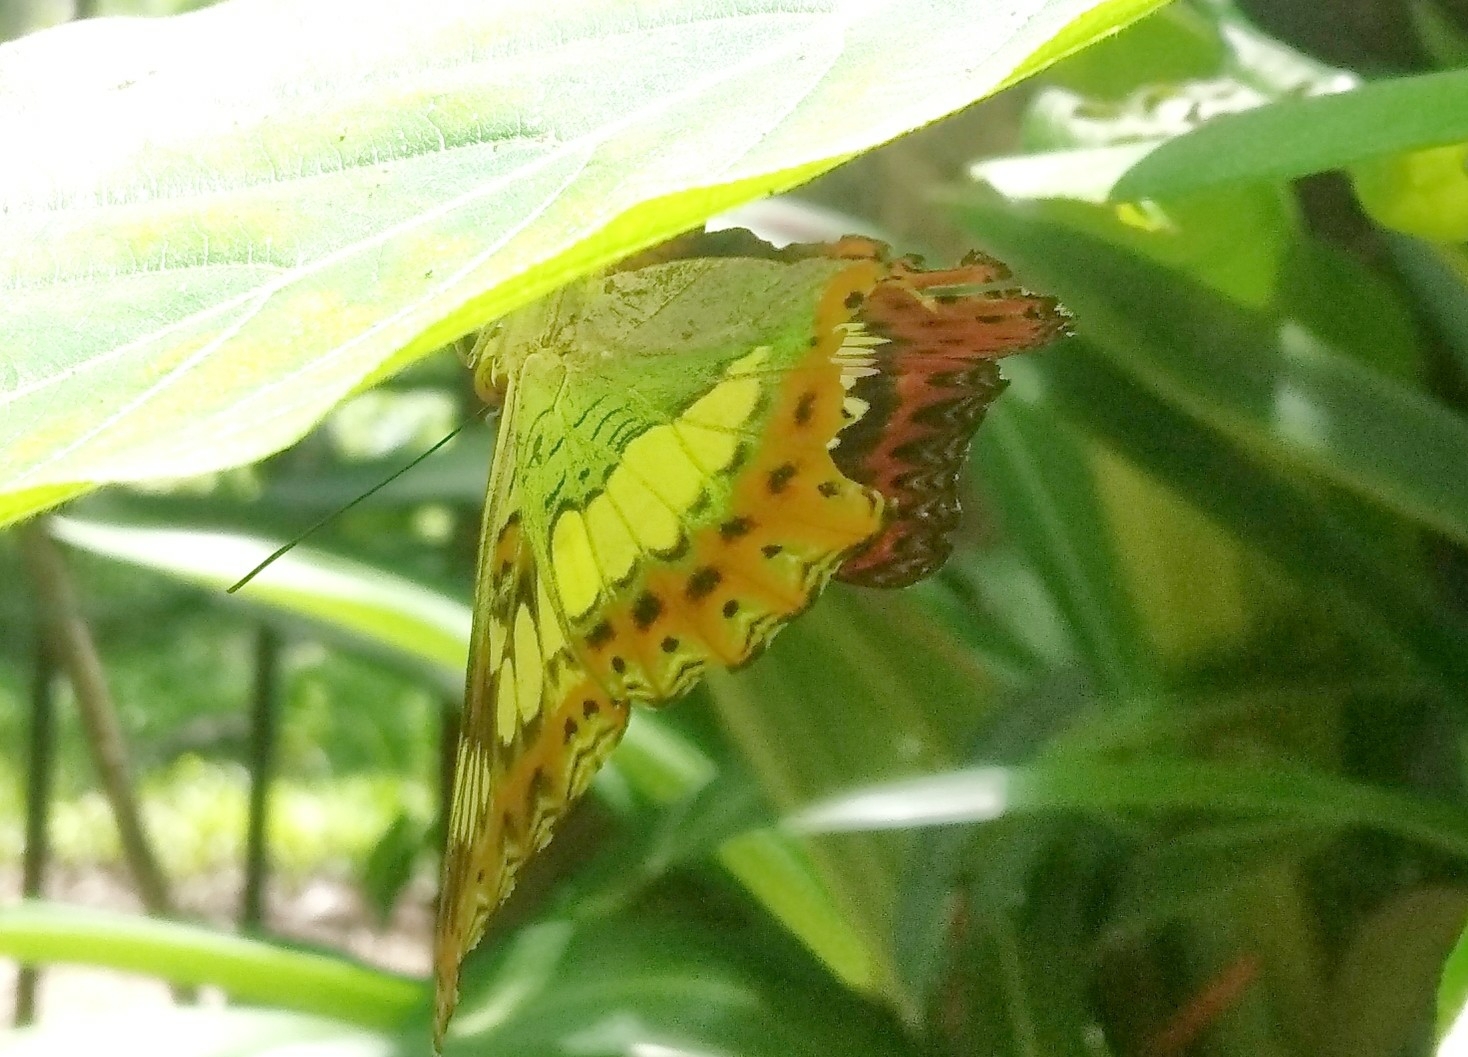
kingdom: Animalia
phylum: Arthropoda
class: Insecta
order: Lepidoptera
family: Nymphalidae
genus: Limenitis
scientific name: Limenitis Moduza procris
